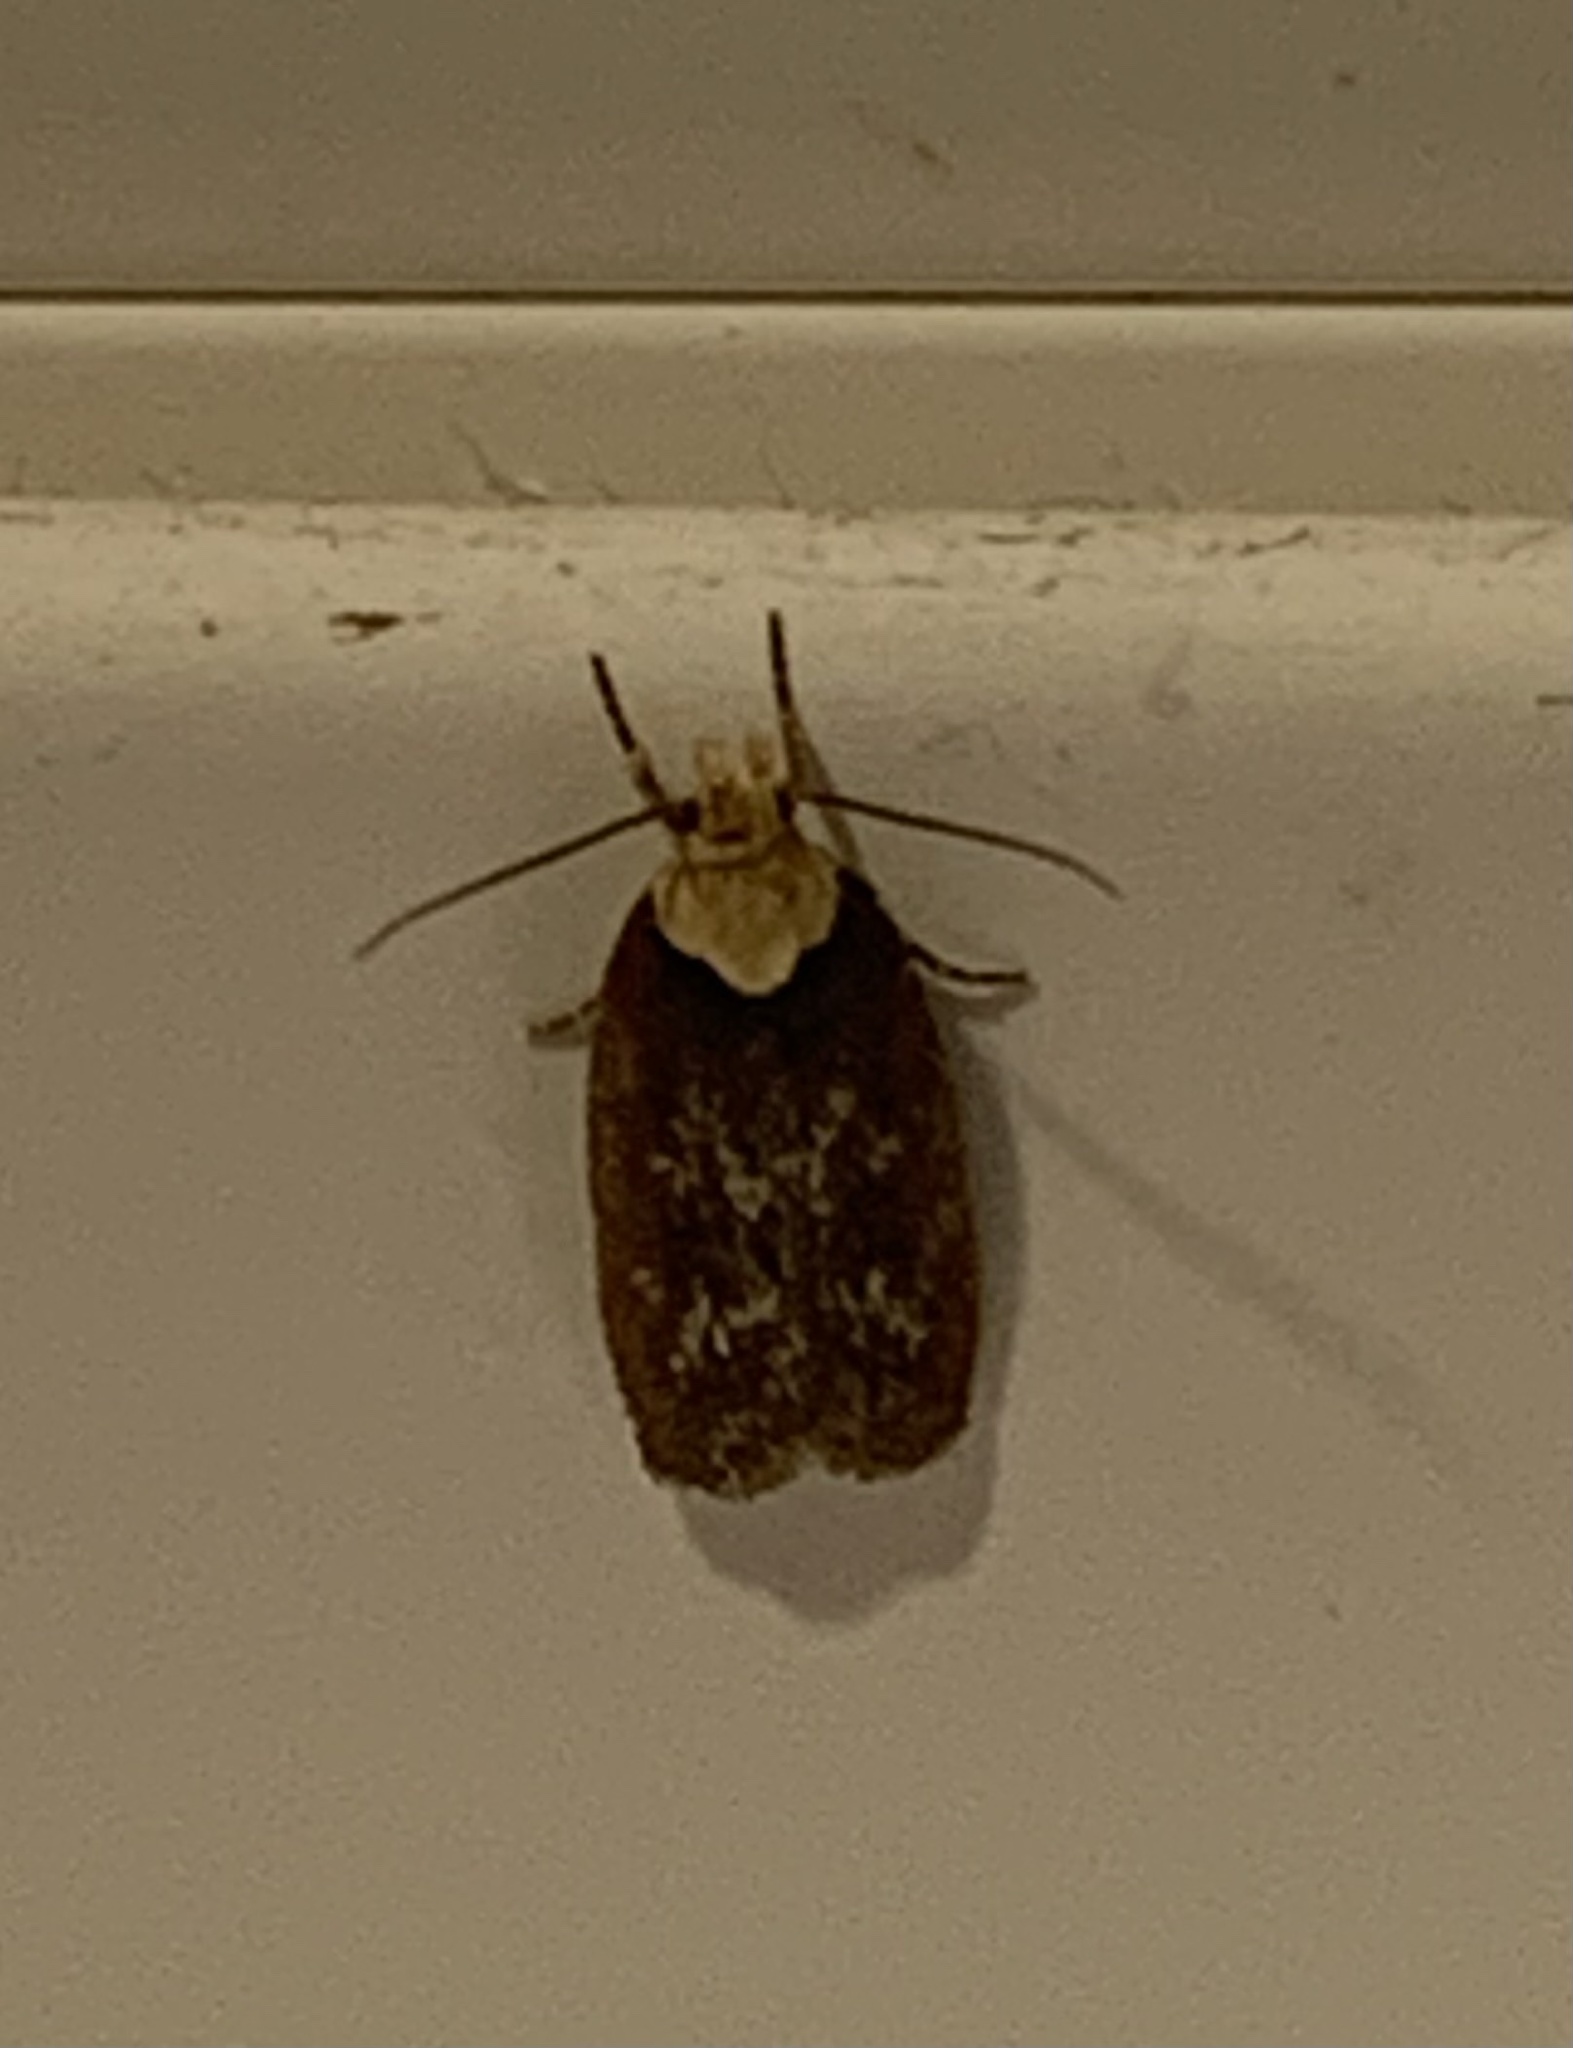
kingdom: Animalia
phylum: Arthropoda
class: Insecta
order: Lepidoptera
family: Depressariidae
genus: Depressaria
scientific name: Depressaria depressana
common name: Lost flat-body
